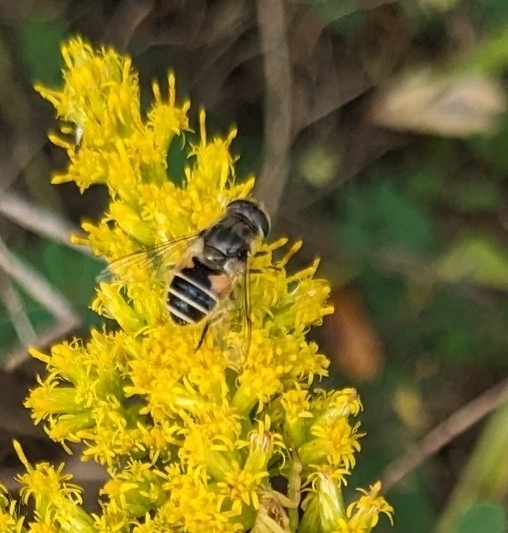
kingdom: Animalia
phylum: Arthropoda
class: Insecta
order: Diptera
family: Syrphidae
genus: Eristalis
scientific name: Eristalis arbustorum
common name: Hover fly
